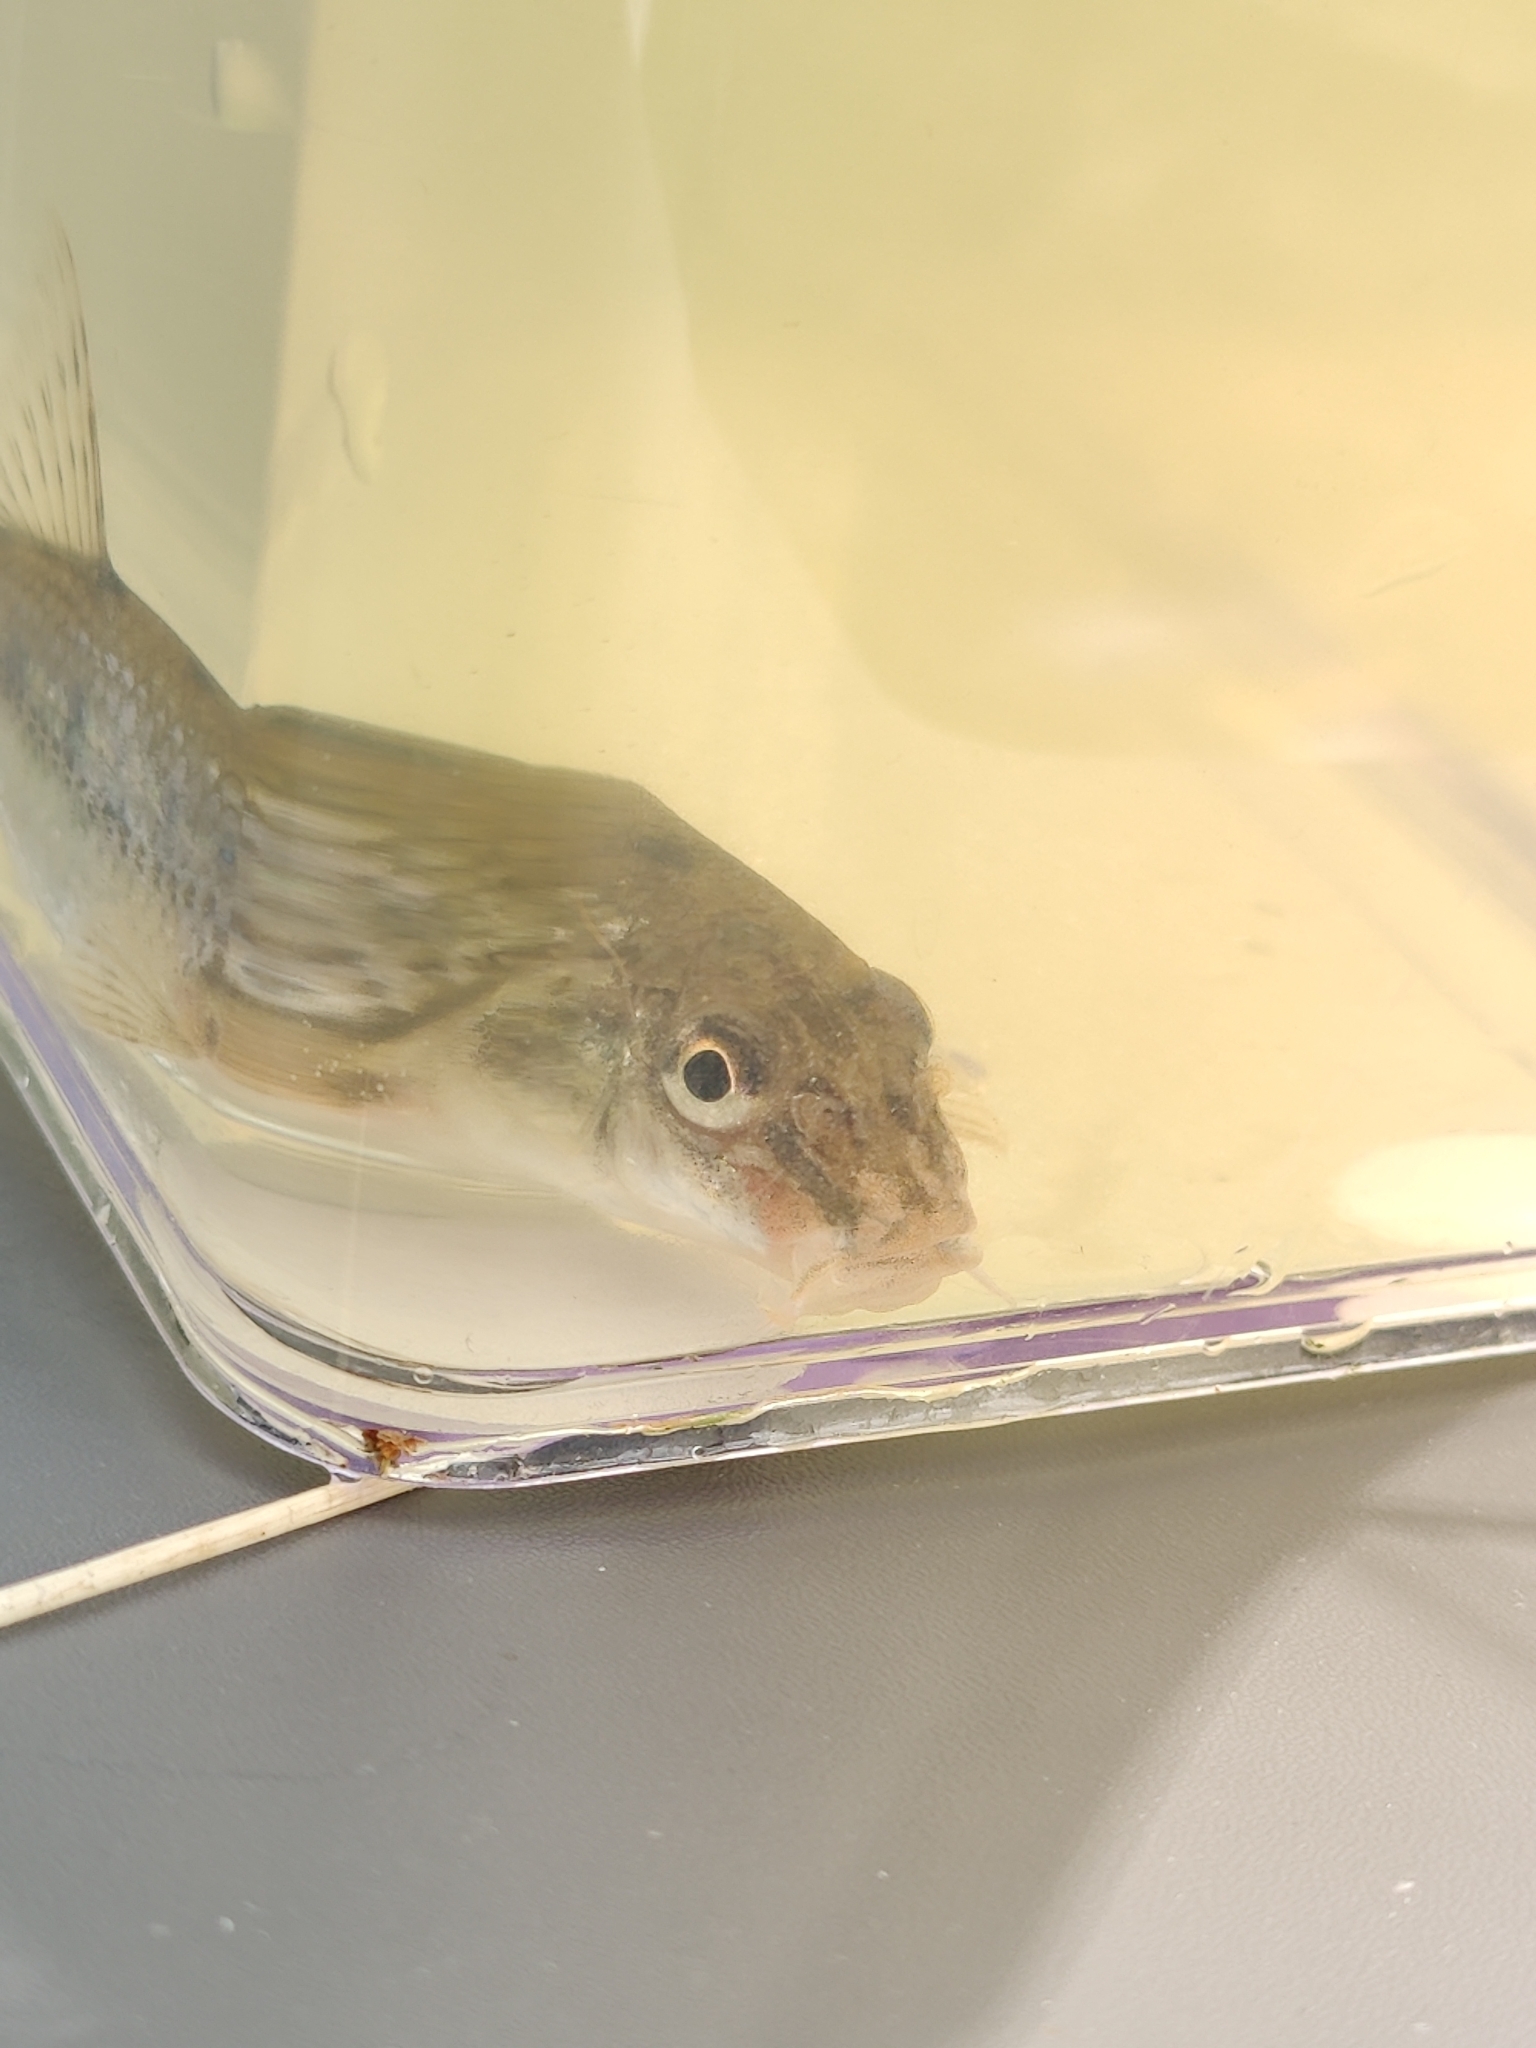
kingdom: Animalia
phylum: Chordata
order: Cypriniformes
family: Cyprinidae
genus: Gobio
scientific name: Gobio gobio
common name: Gudgeon
